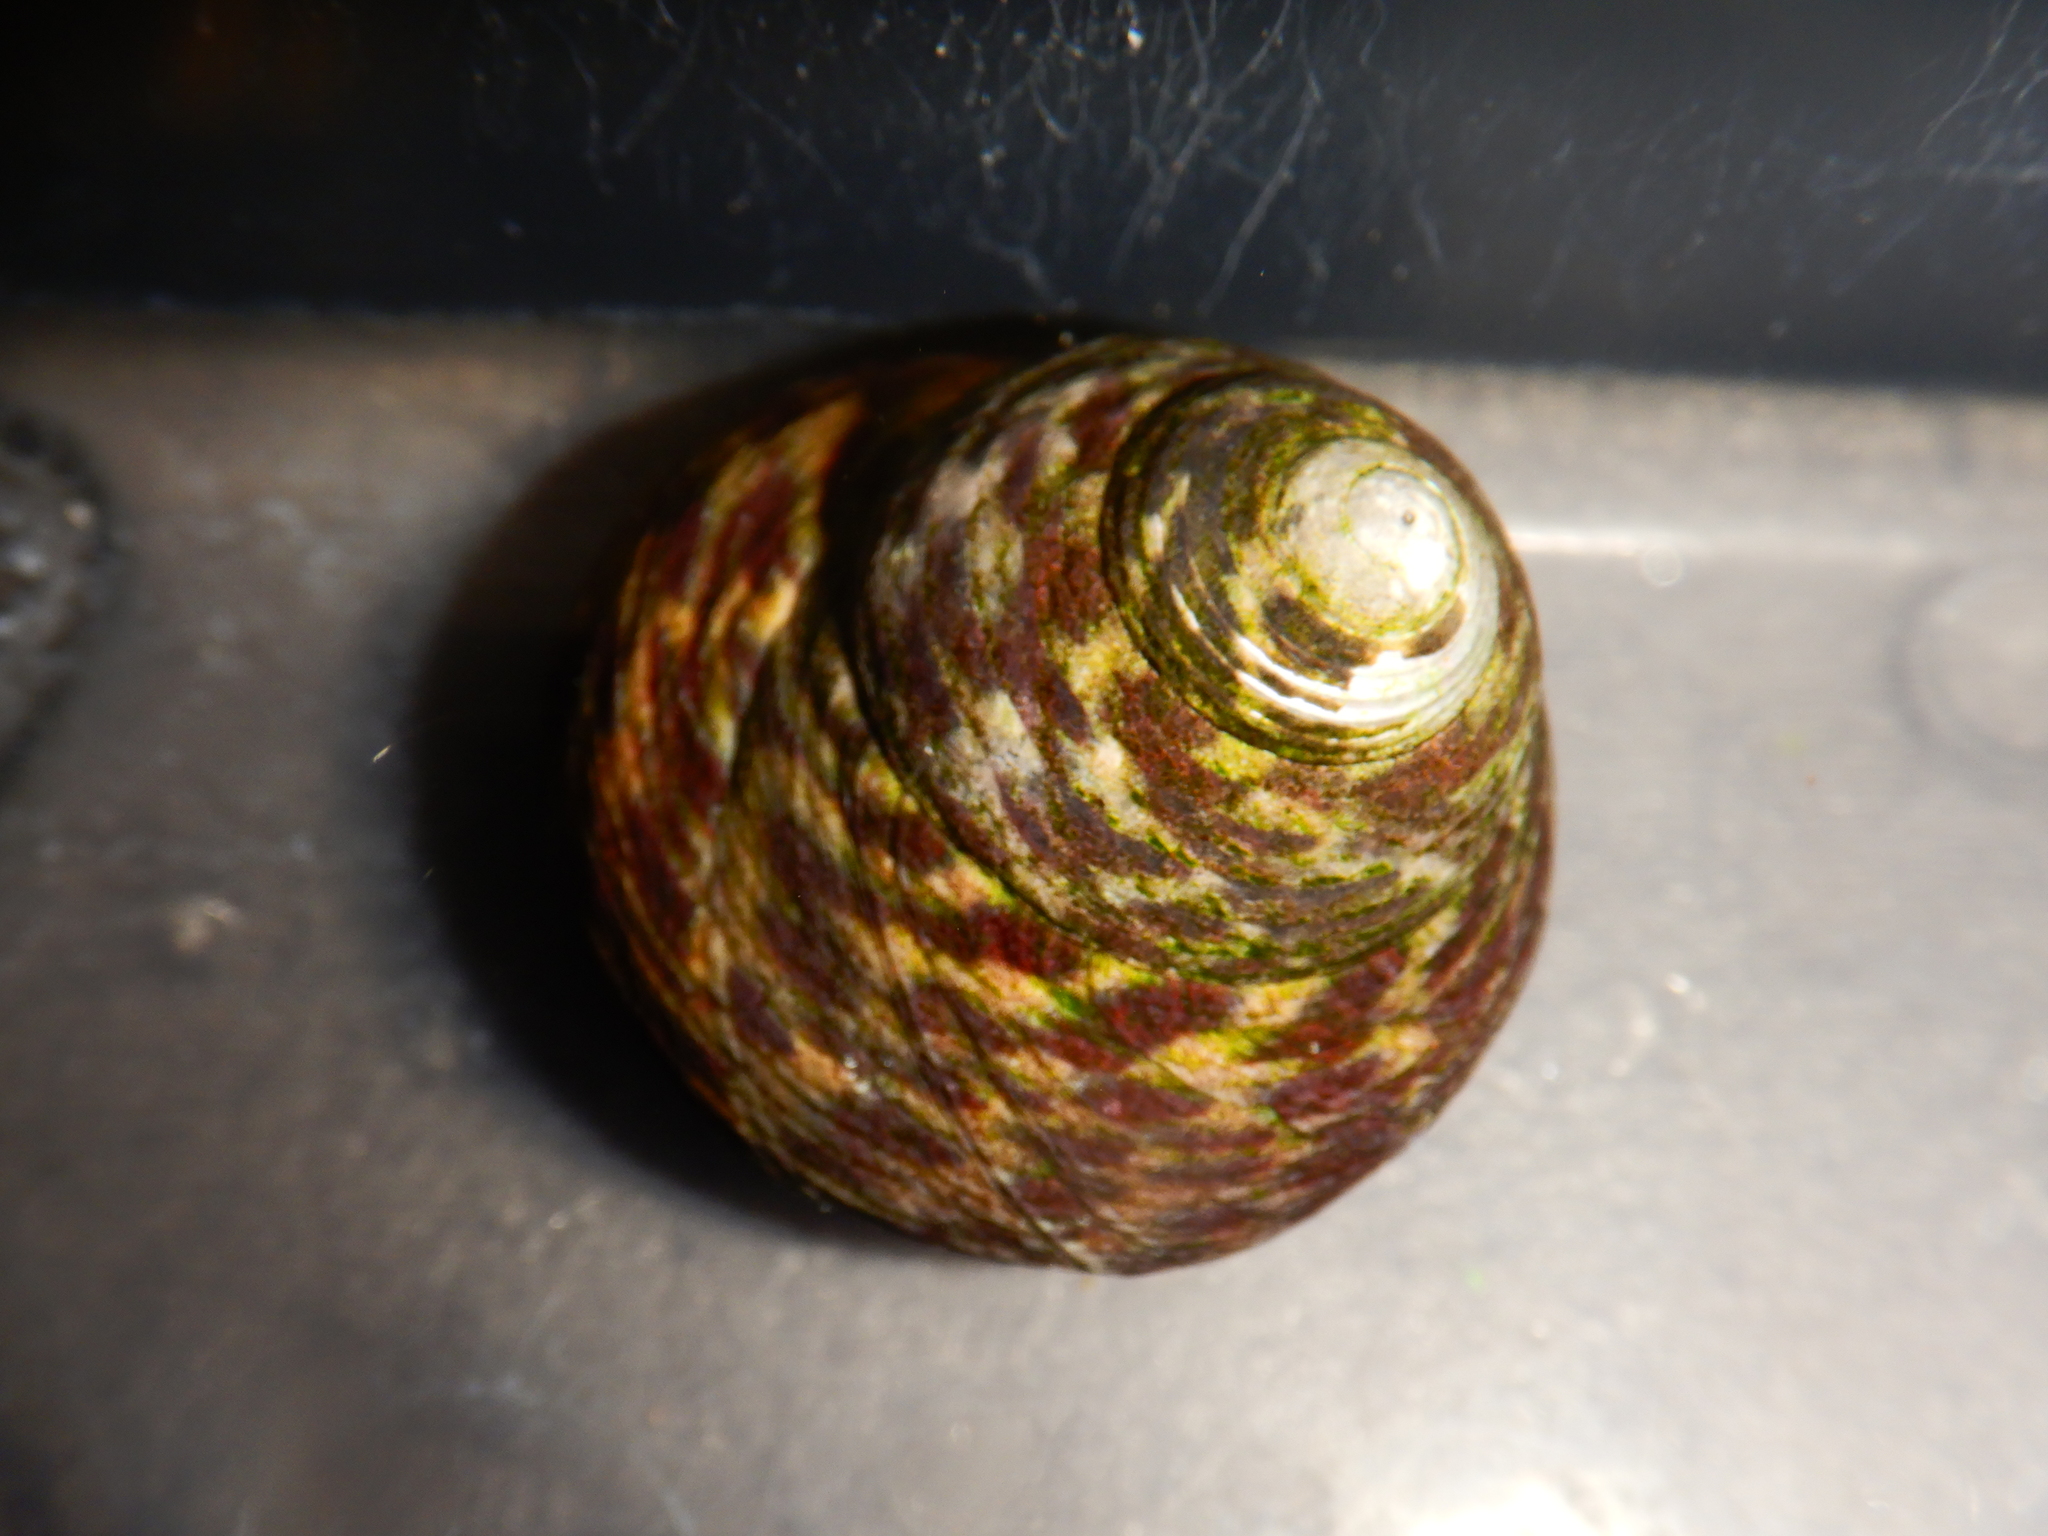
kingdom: Animalia
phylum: Mollusca
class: Gastropoda
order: Trochida
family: Trochidae
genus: Phorcus
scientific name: Phorcus turbinatus
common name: Turbinate monodont
